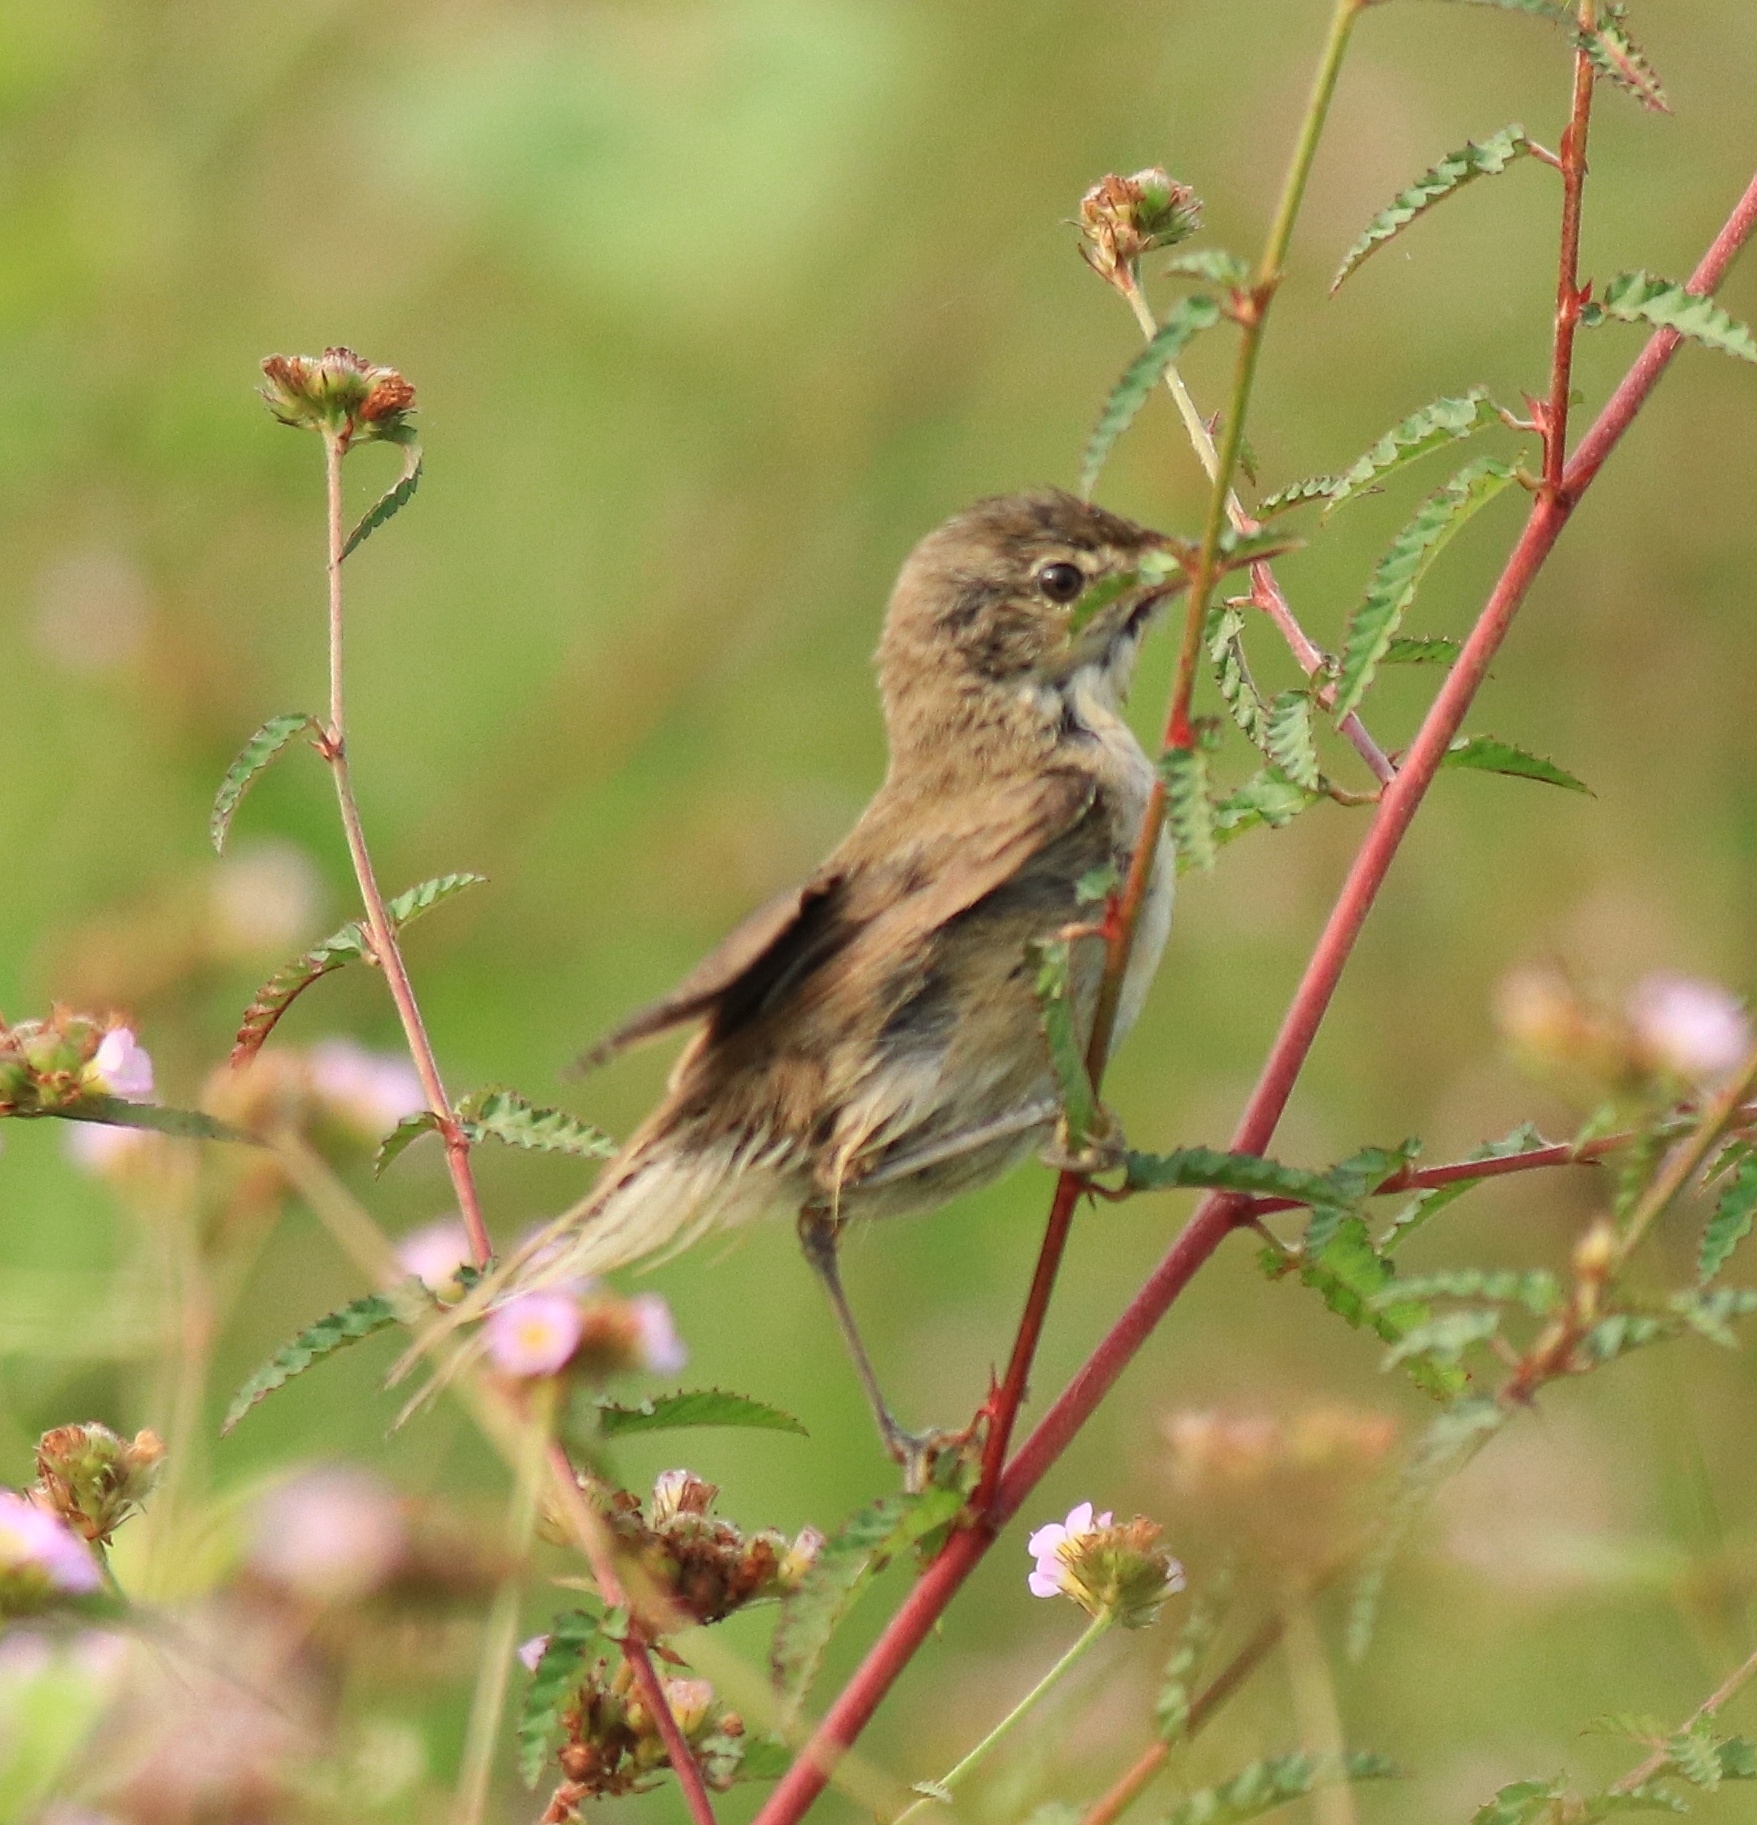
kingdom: Animalia
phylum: Chordata
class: Aves
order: Passeriformes
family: Acrocephalidae
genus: Iduna
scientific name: Iduna caligata
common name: Booted warbler
